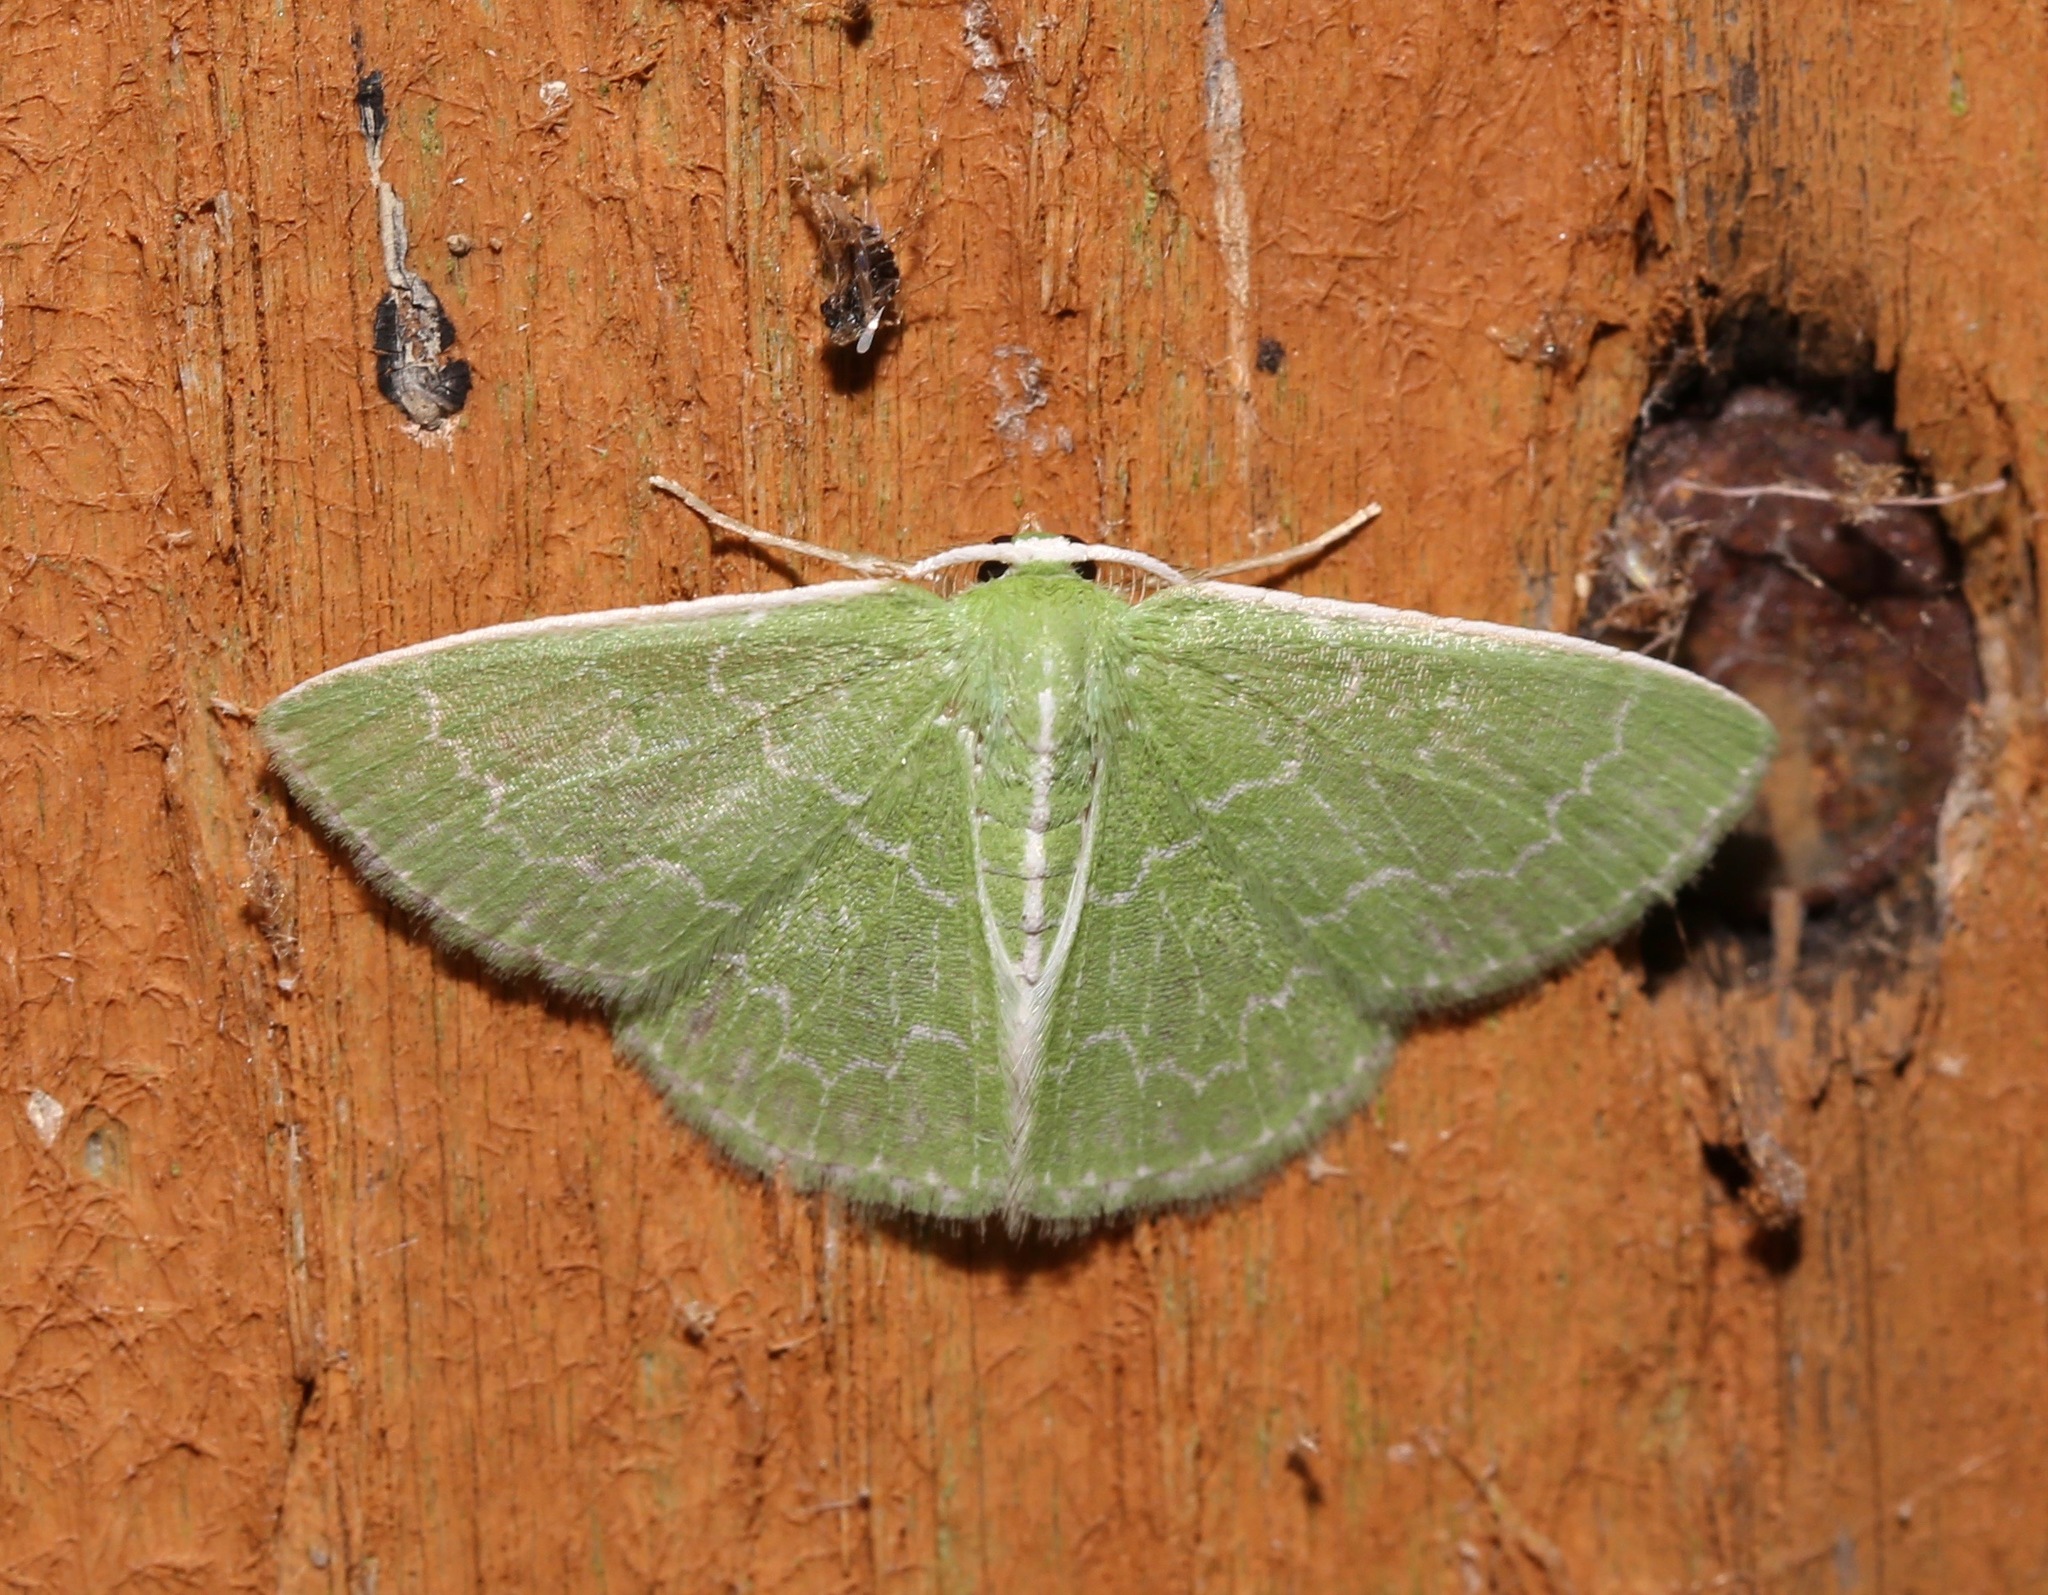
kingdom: Animalia
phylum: Arthropoda
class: Insecta
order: Lepidoptera
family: Geometridae
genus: Synchlora
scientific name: Synchlora frondaria
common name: Southern emerald
